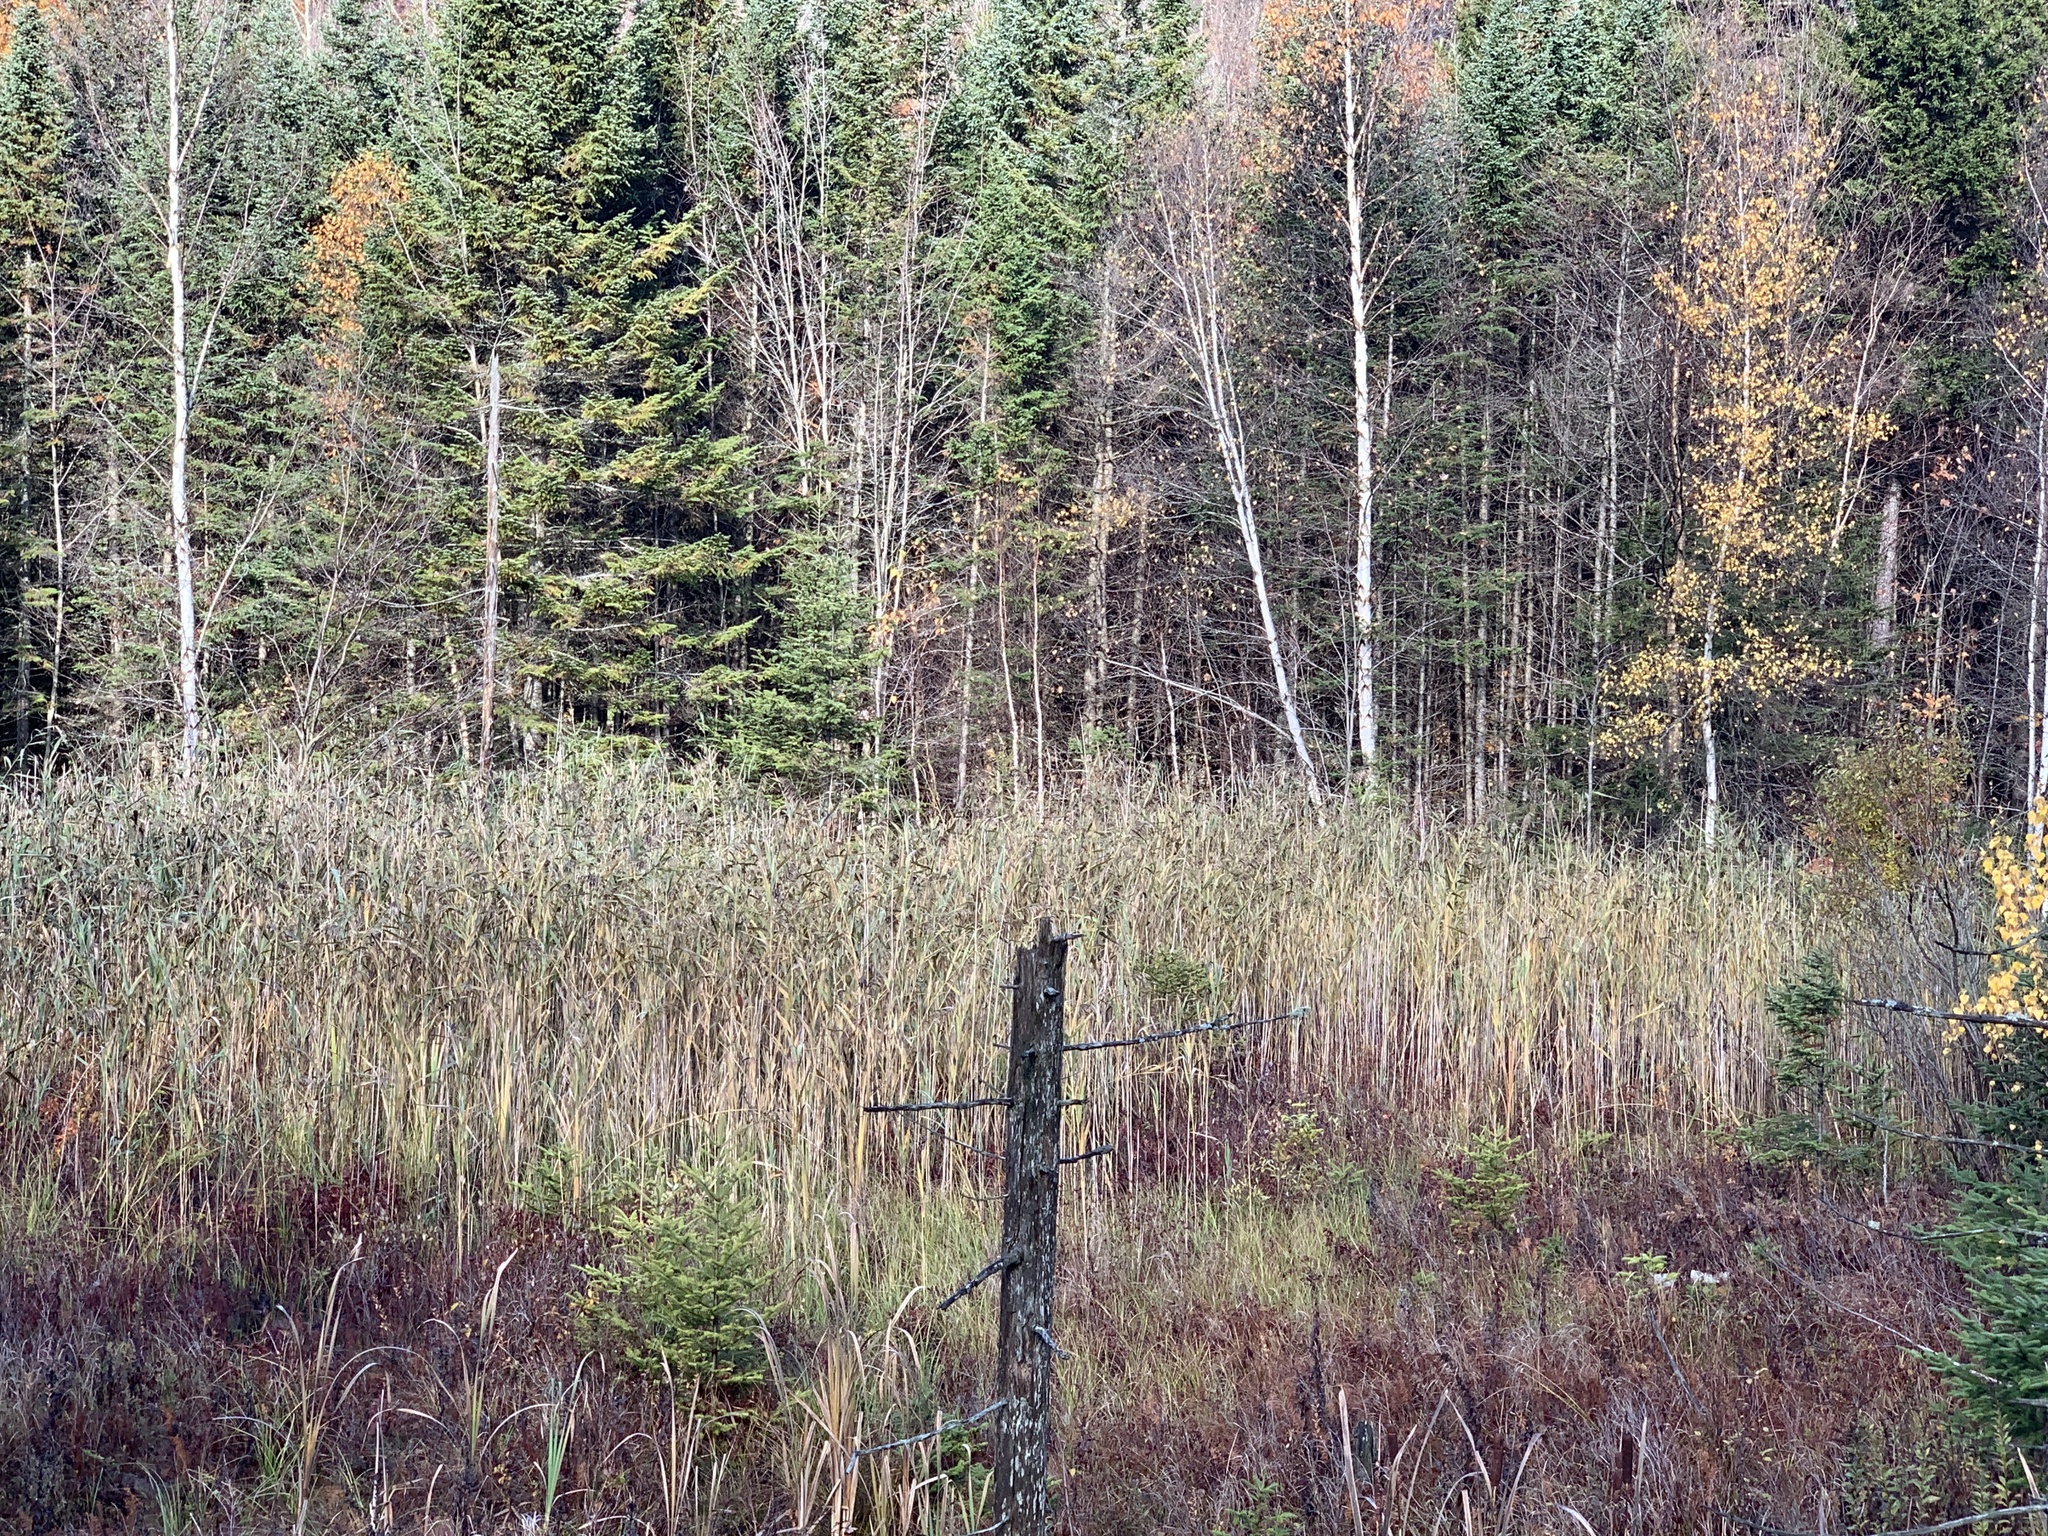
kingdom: Plantae
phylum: Tracheophyta
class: Liliopsida
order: Poales
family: Poaceae
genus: Phragmites
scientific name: Phragmites australis
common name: Common reed
